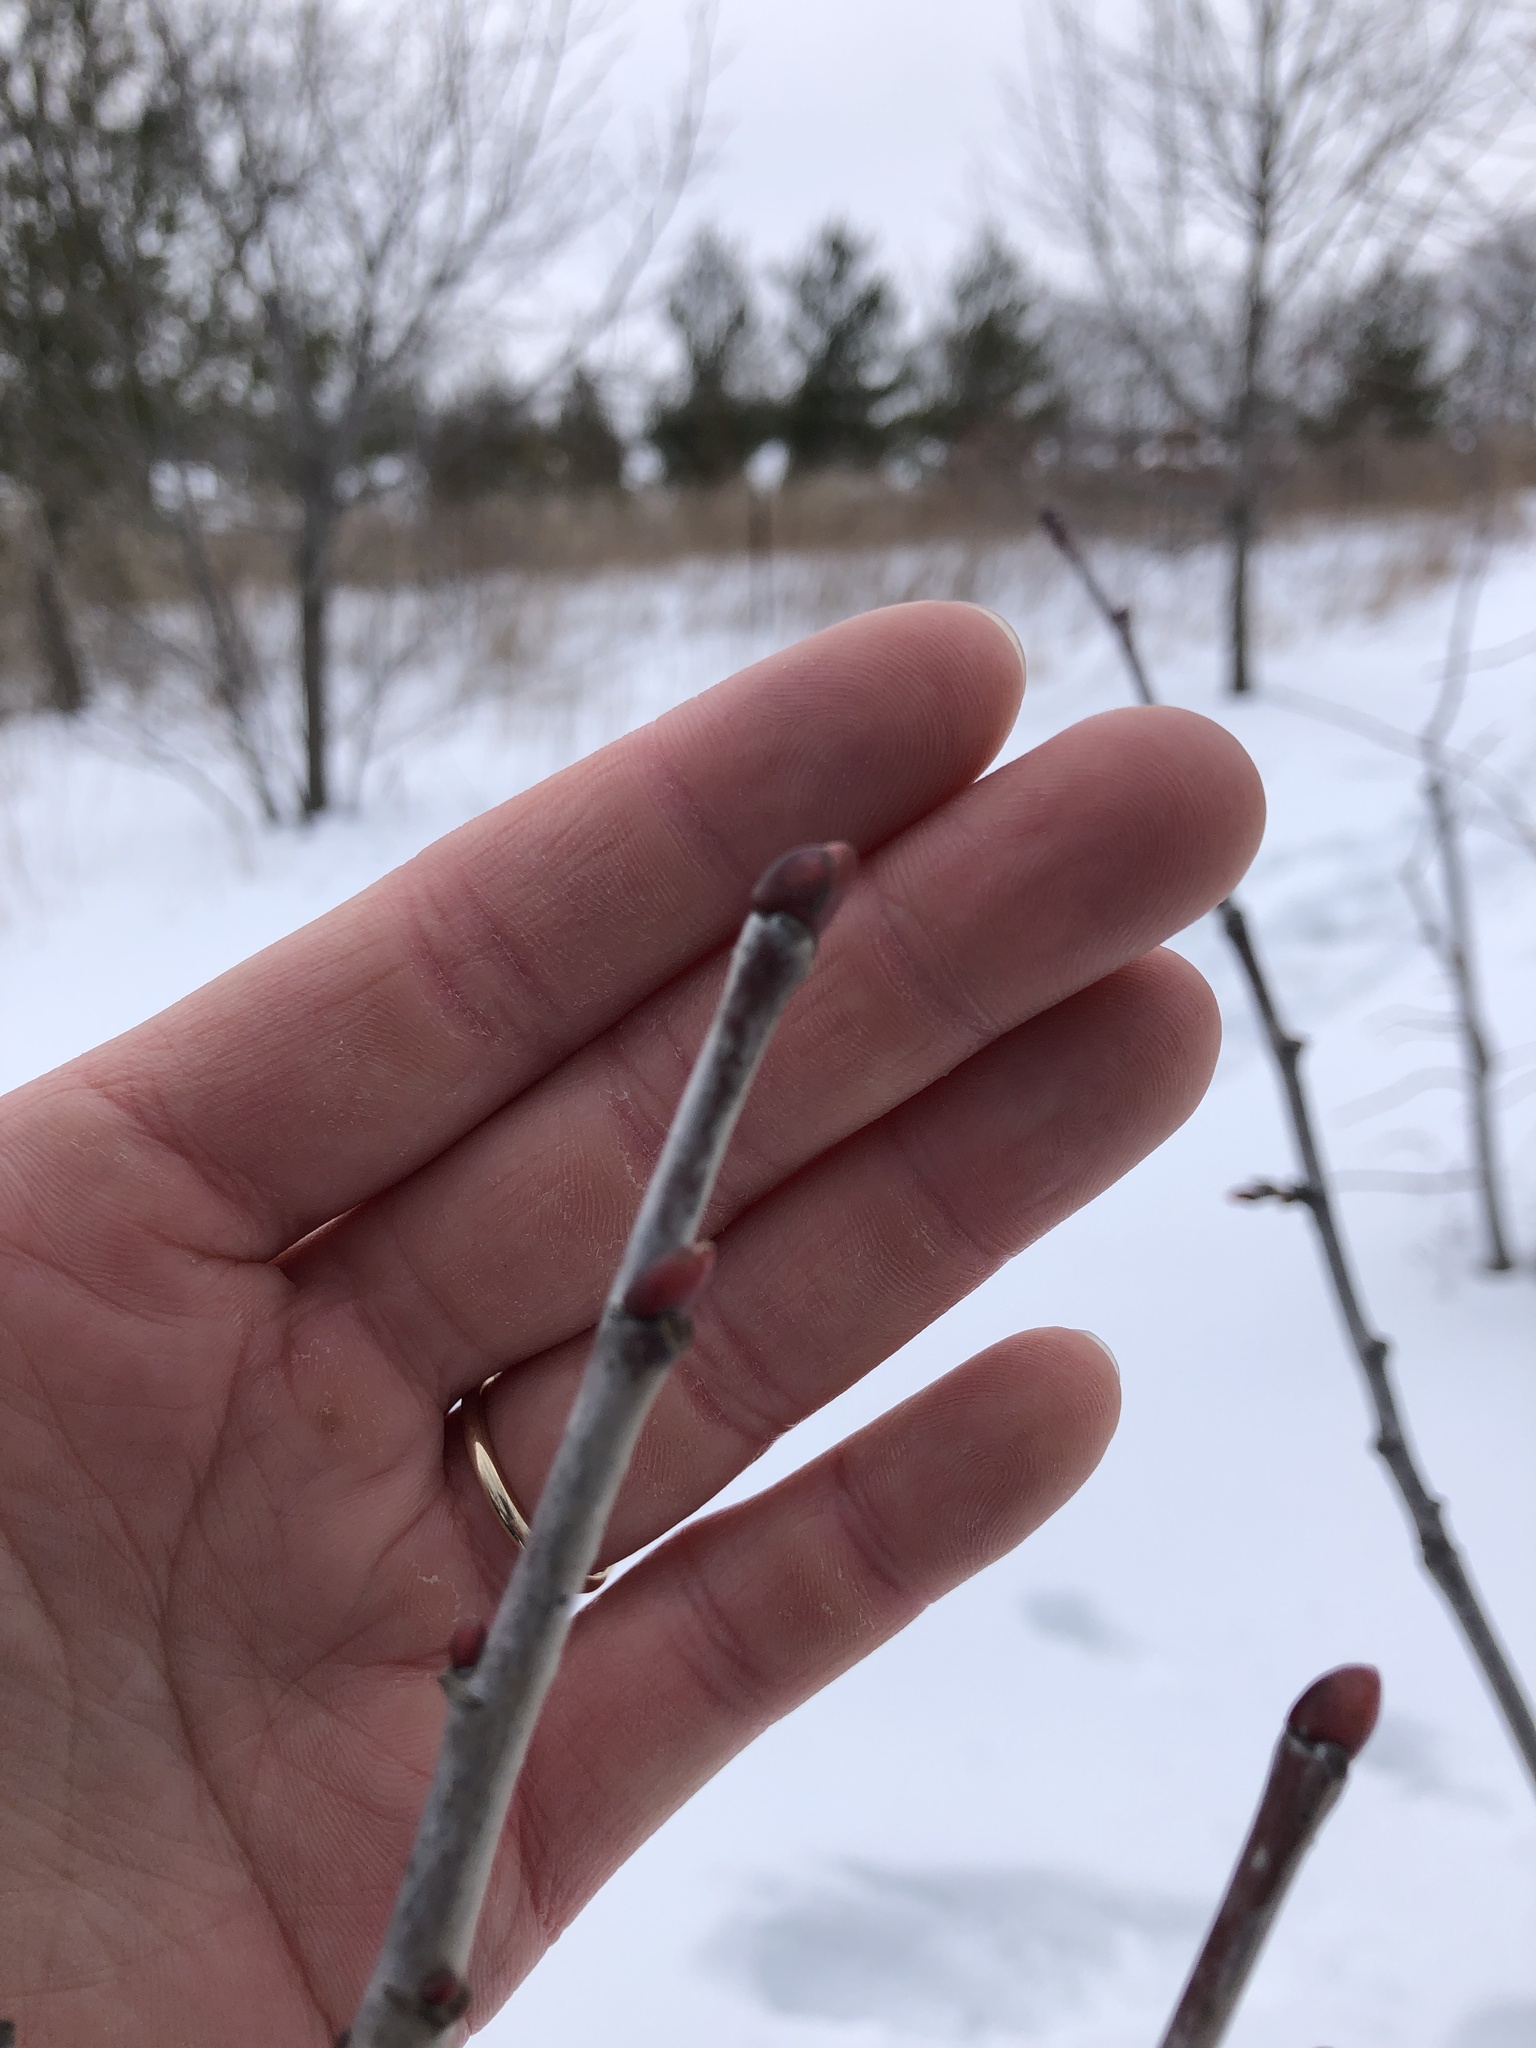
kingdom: Plantae
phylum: Tracheophyta
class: Magnoliopsida
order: Malvales
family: Malvaceae
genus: Tilia
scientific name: Tilia americana
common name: Basswood
